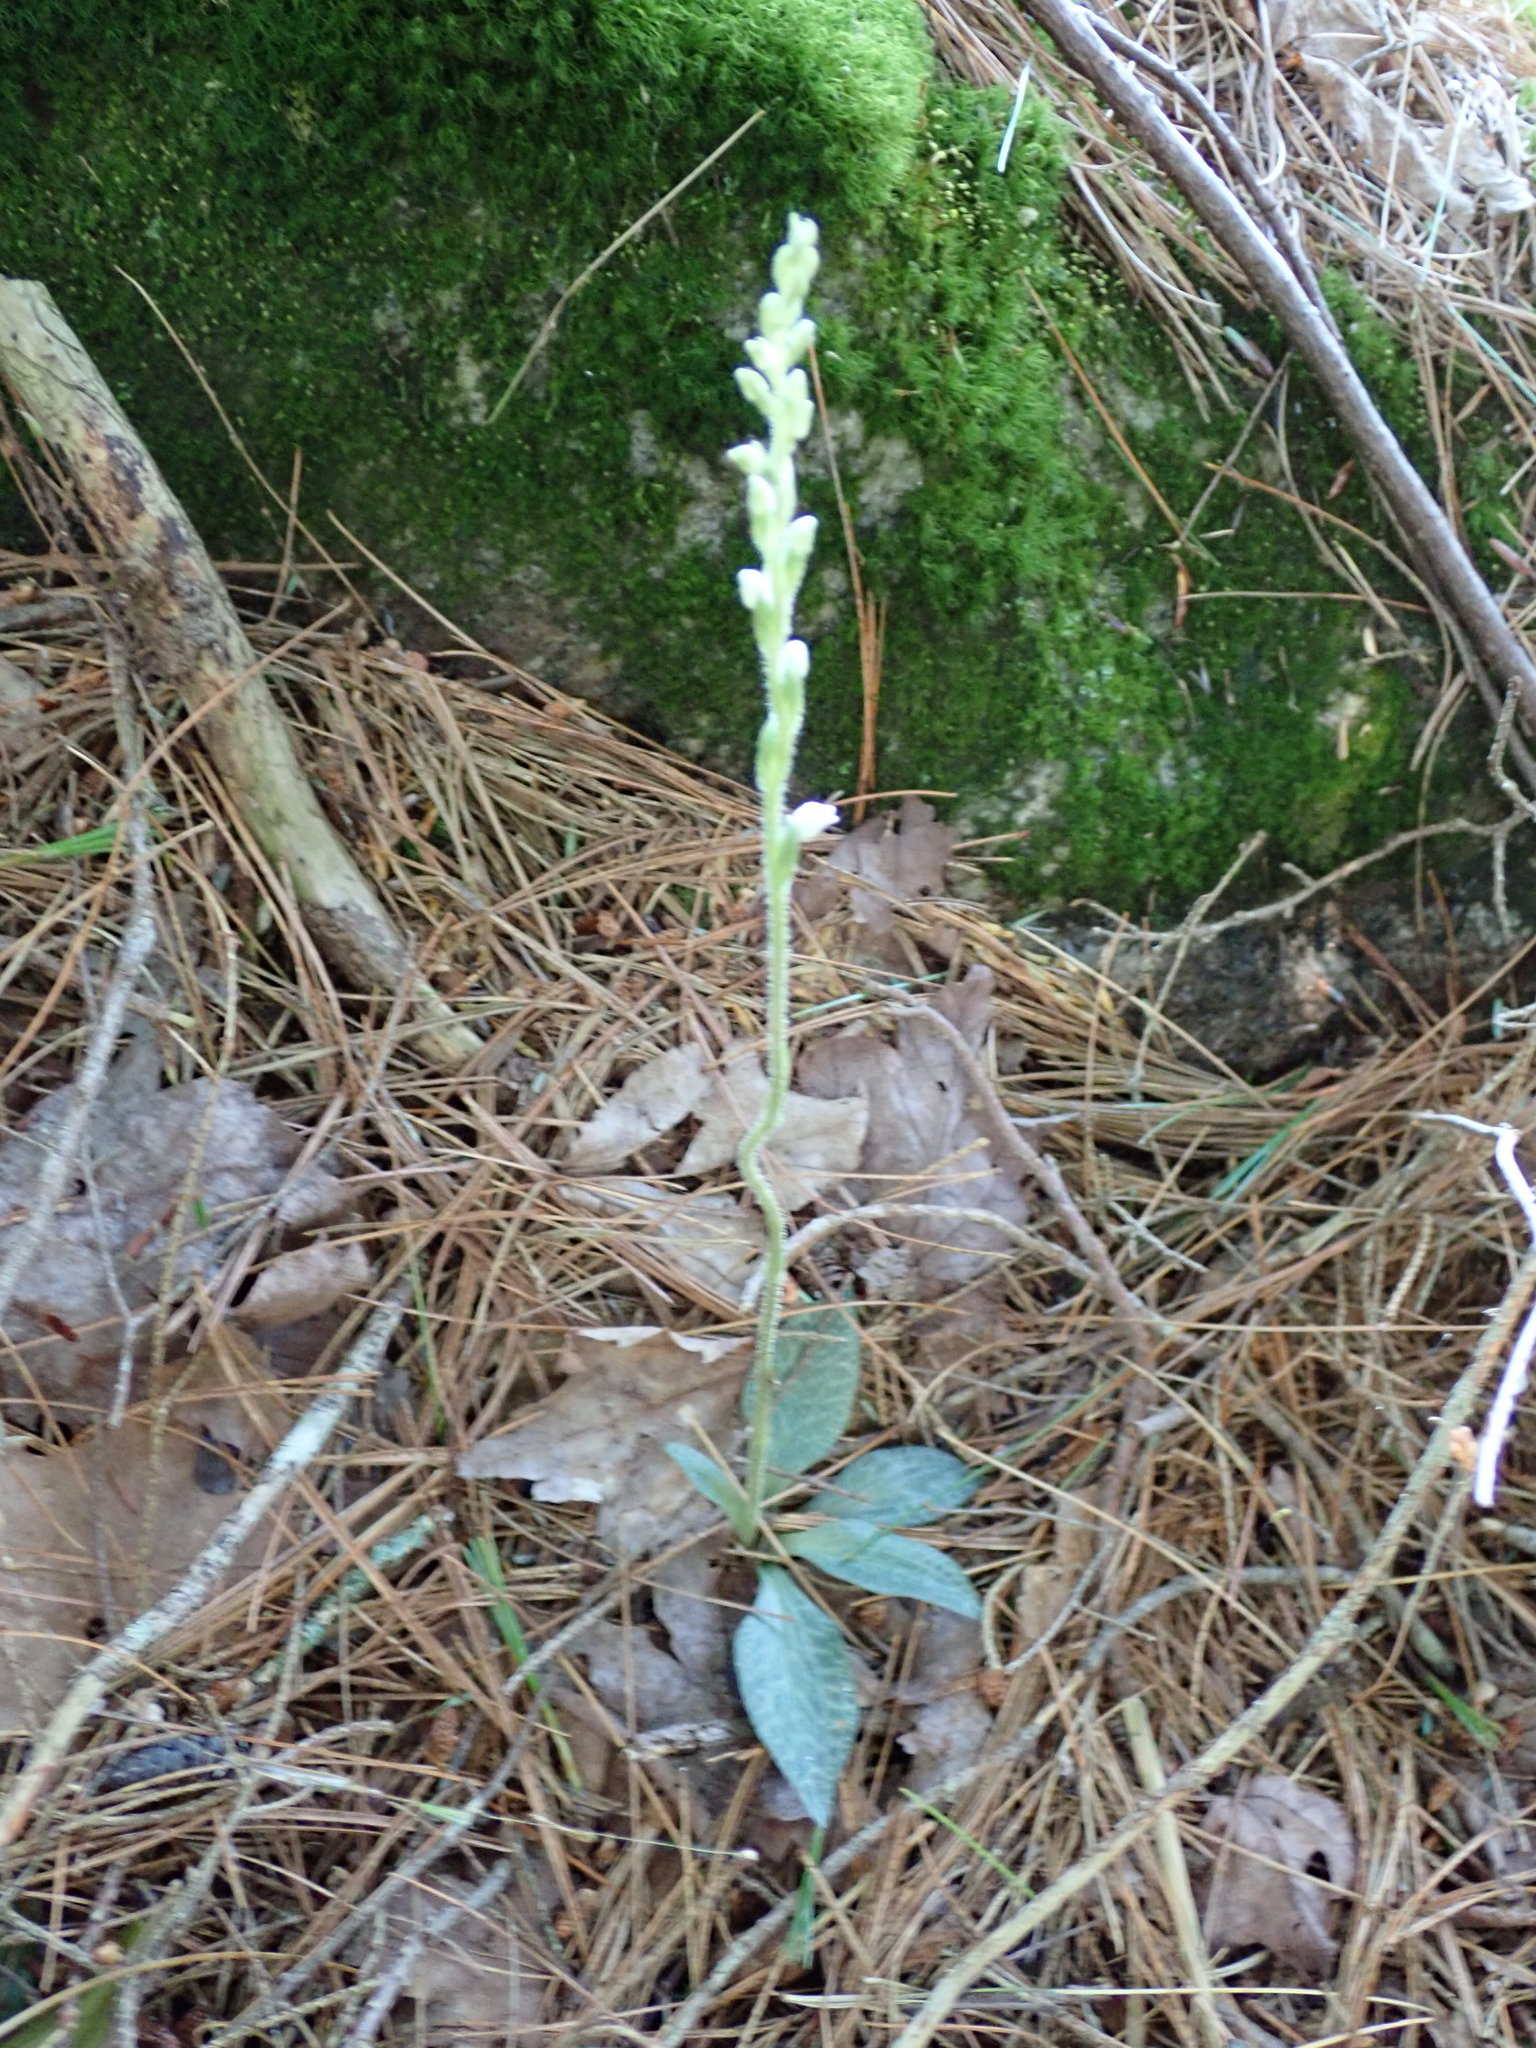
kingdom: Plantae
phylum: Tracheophyta
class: Liliopsida
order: Asparagales
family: Orchidaceae
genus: Goodyera
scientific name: Goodyera tesselata
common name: Checkered rattlesnake-plantain
